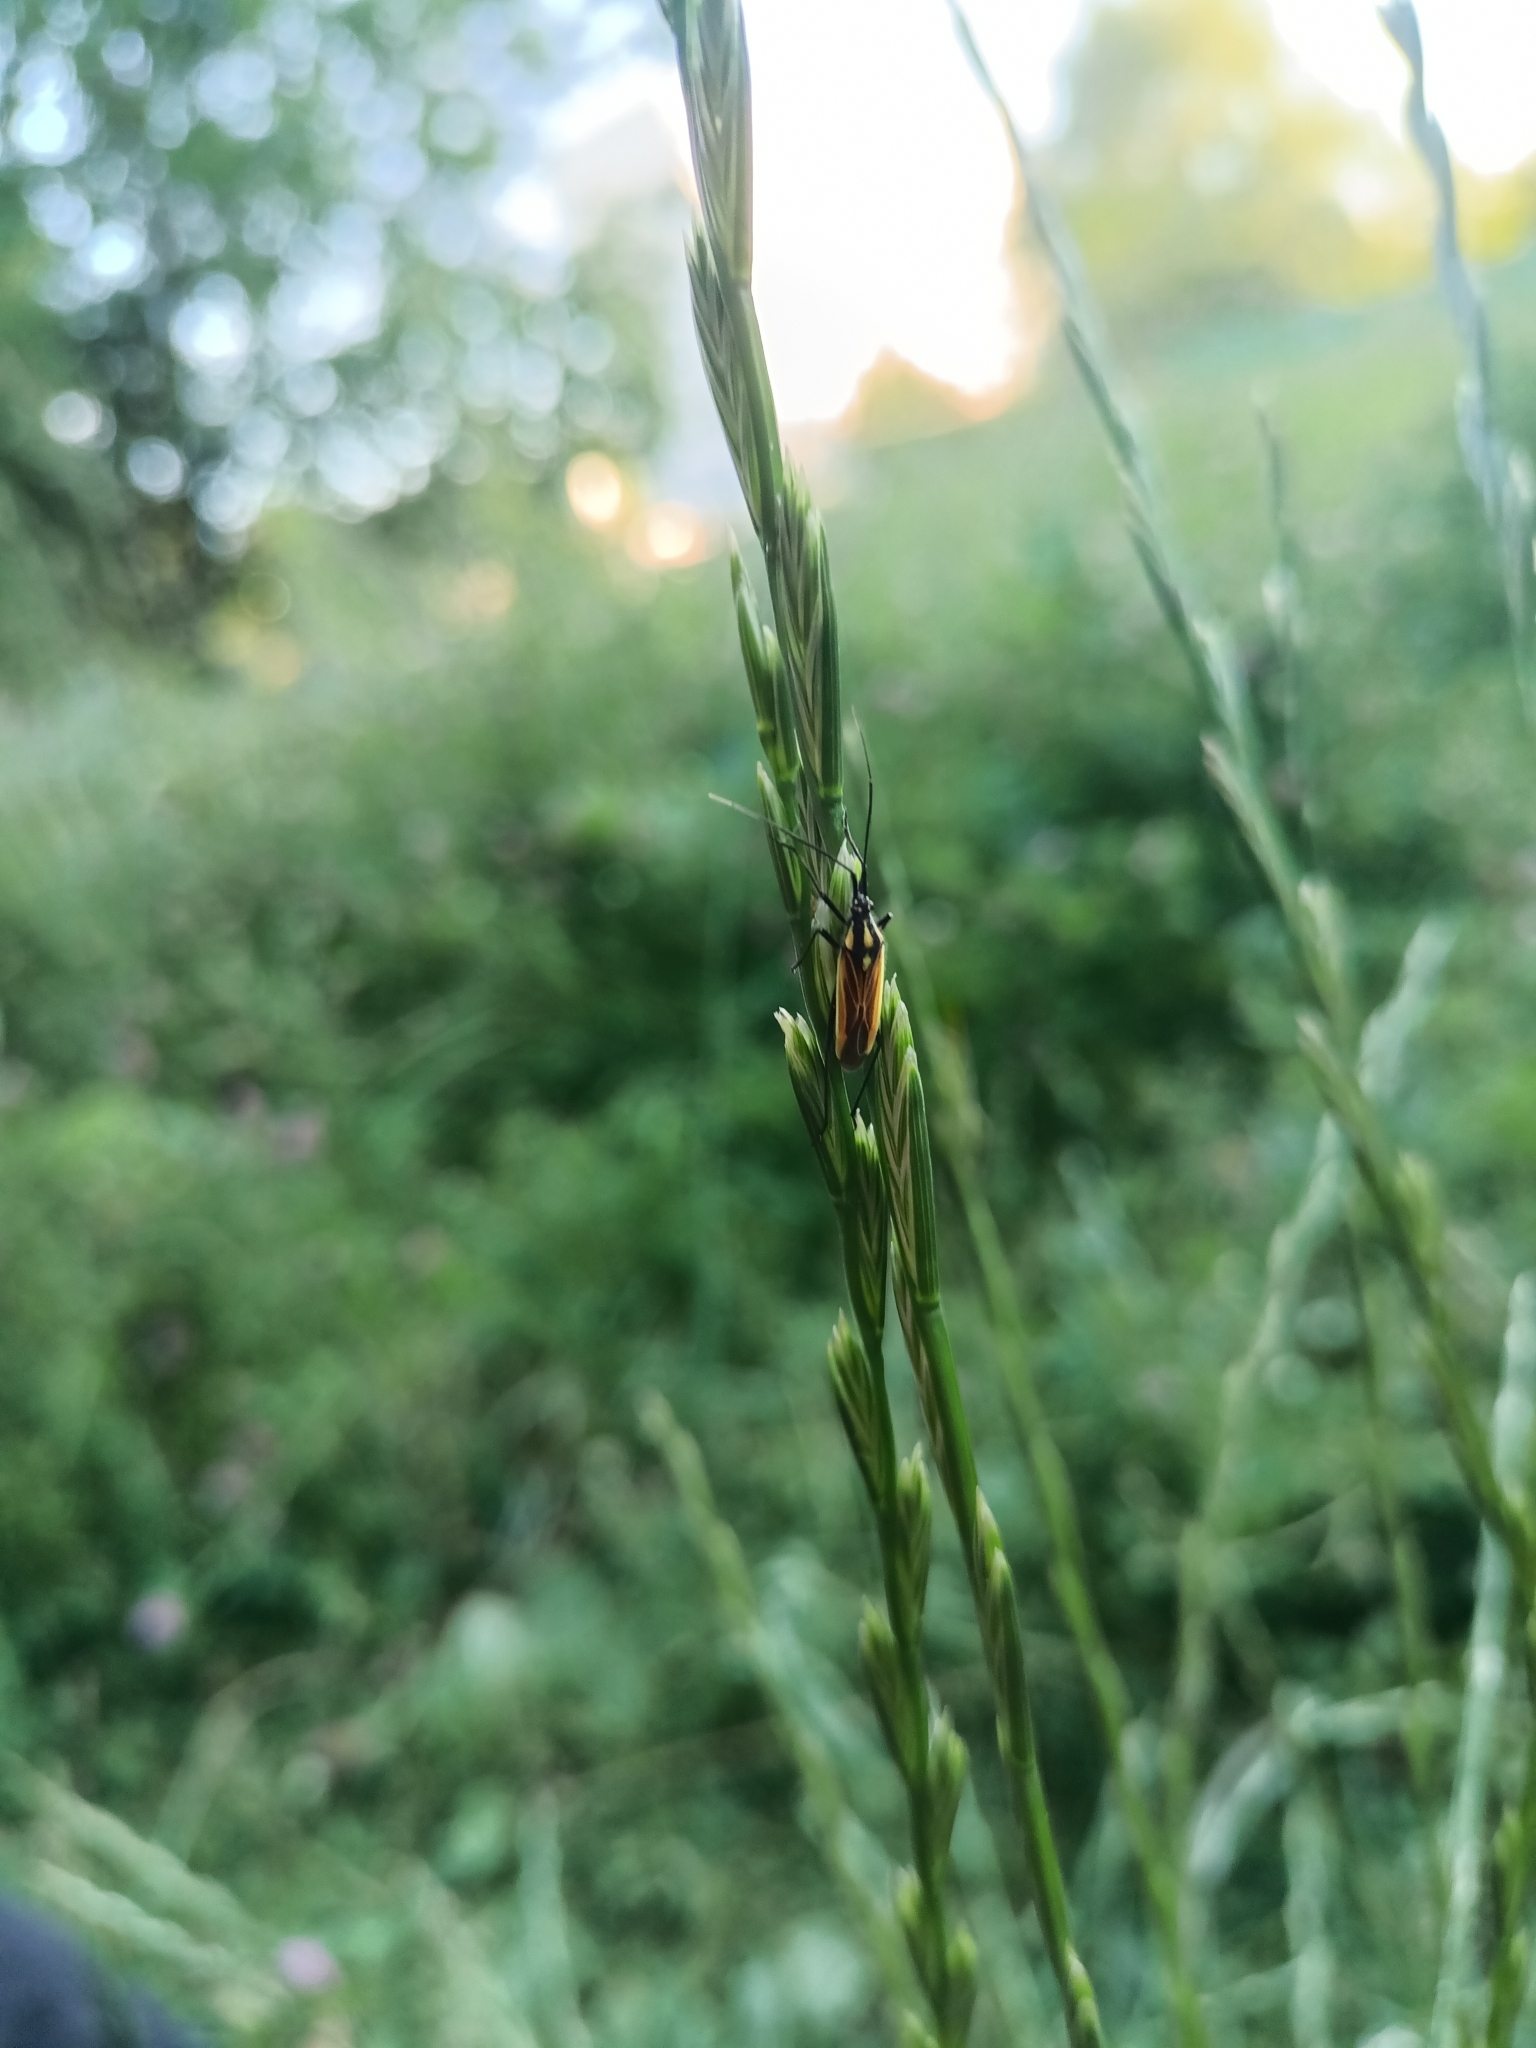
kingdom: Animalia
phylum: Arthropoda
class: Insecta
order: Hemiptera
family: Miridae
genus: Leptopterna
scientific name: Leptopterna dolabrata
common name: Meadow plant bug
